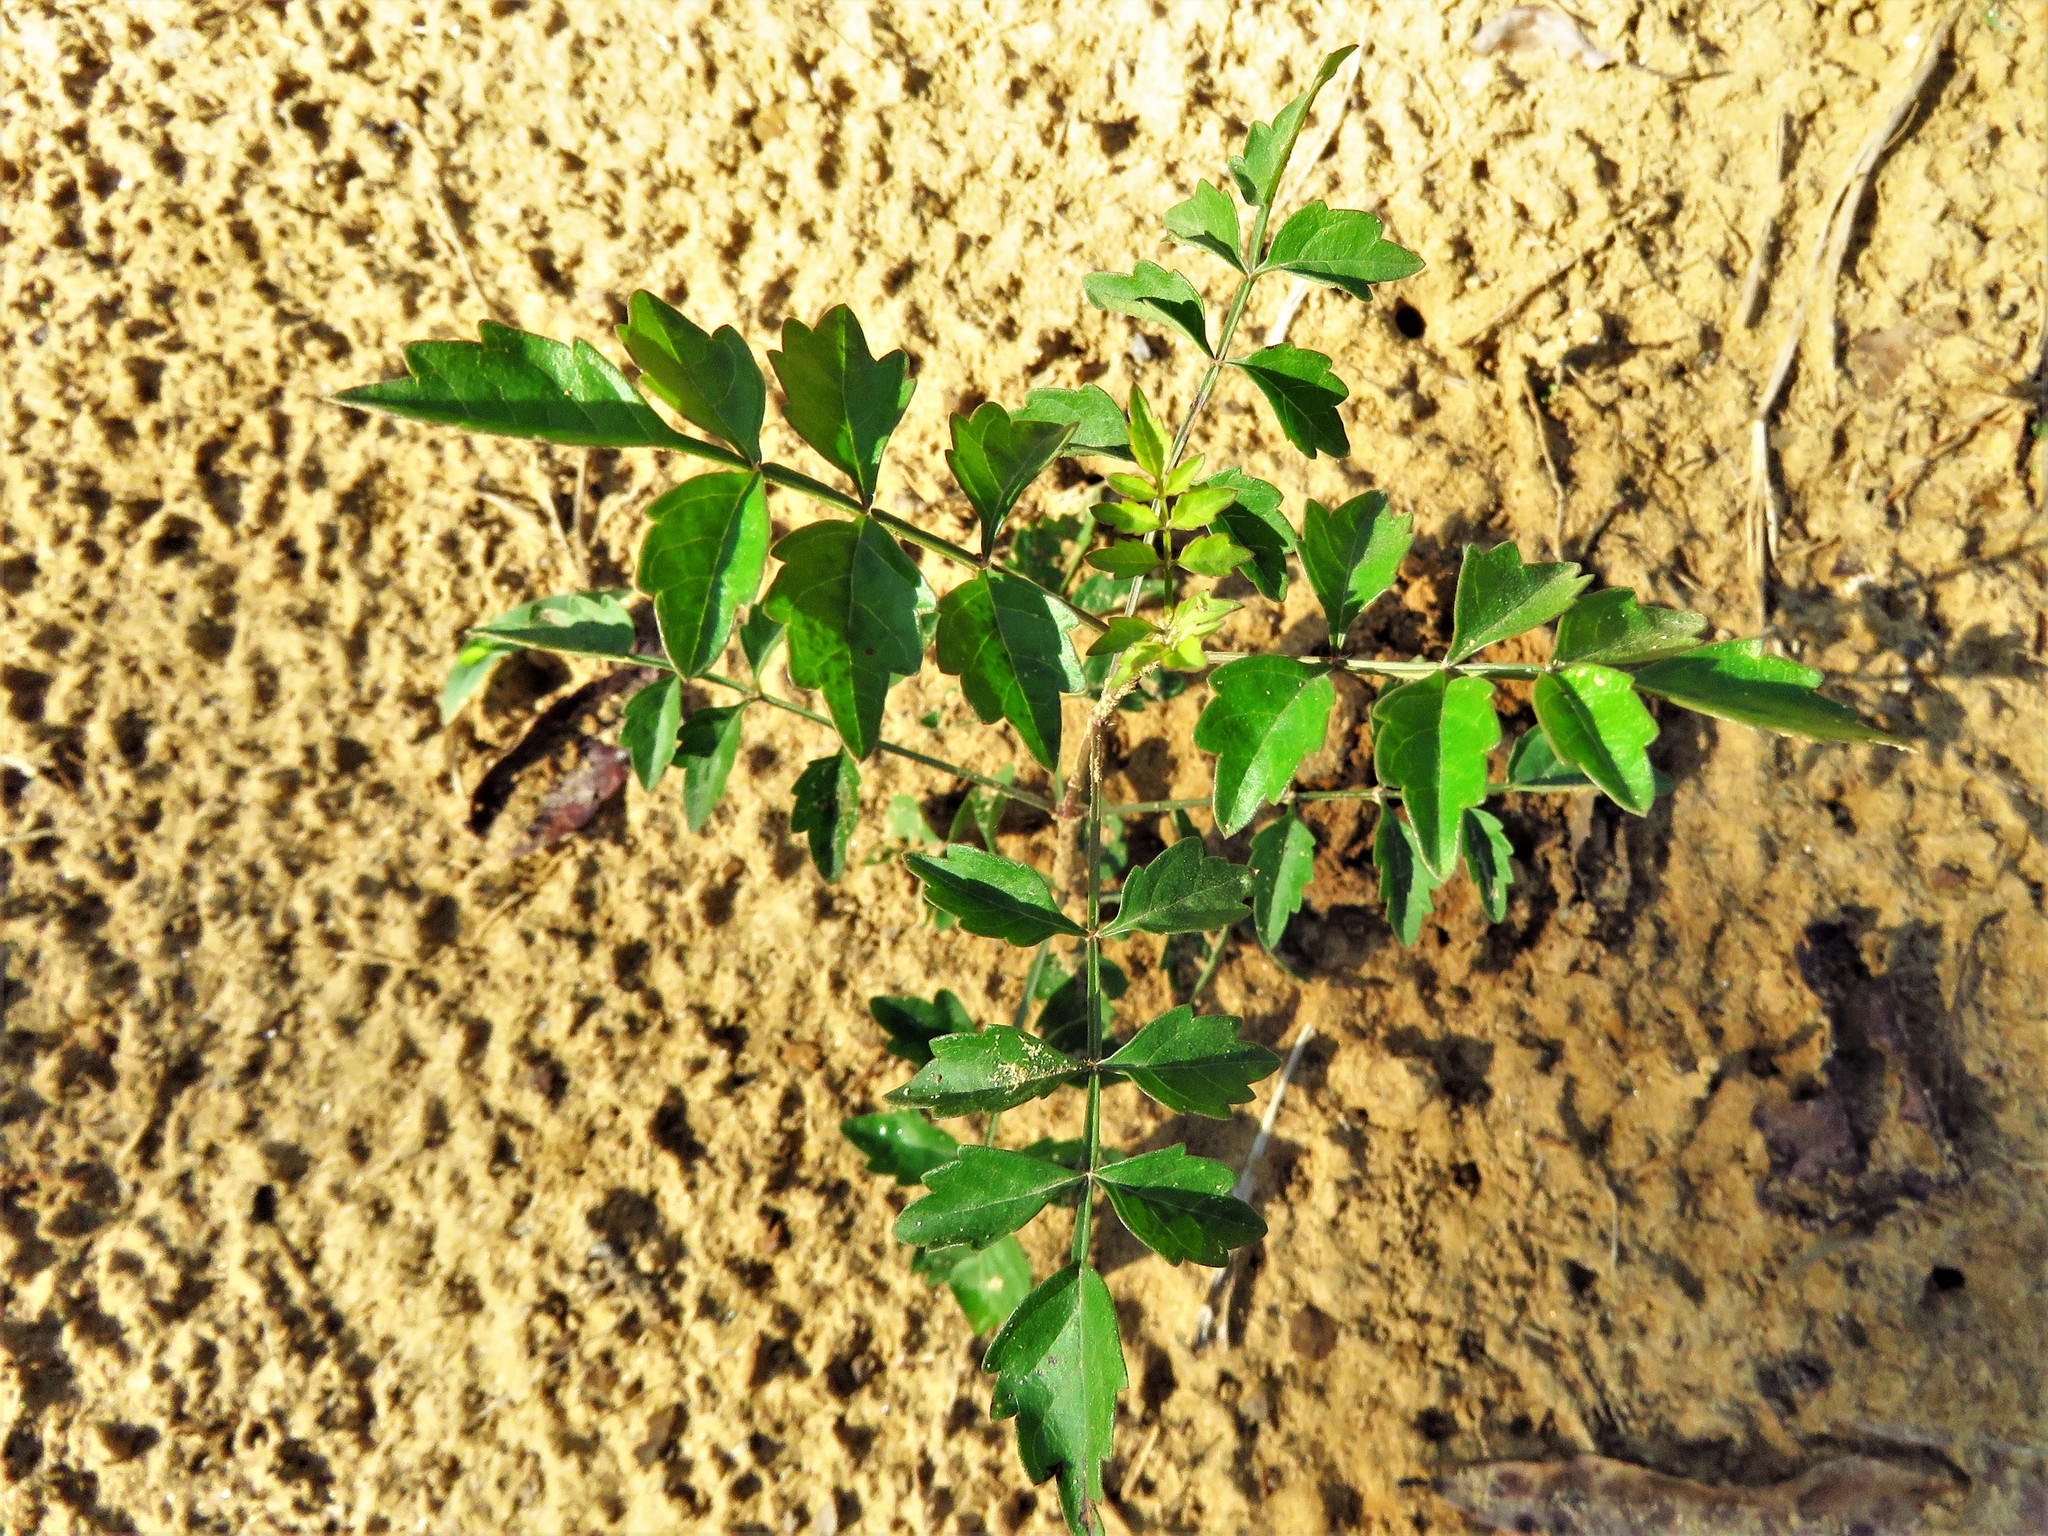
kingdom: Plantae
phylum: Tracheophyta
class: Magnoliopsida
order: Lamiales
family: Bignoniaceae
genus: Campsis
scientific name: Campsis radicans
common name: Trumpet-creeper
